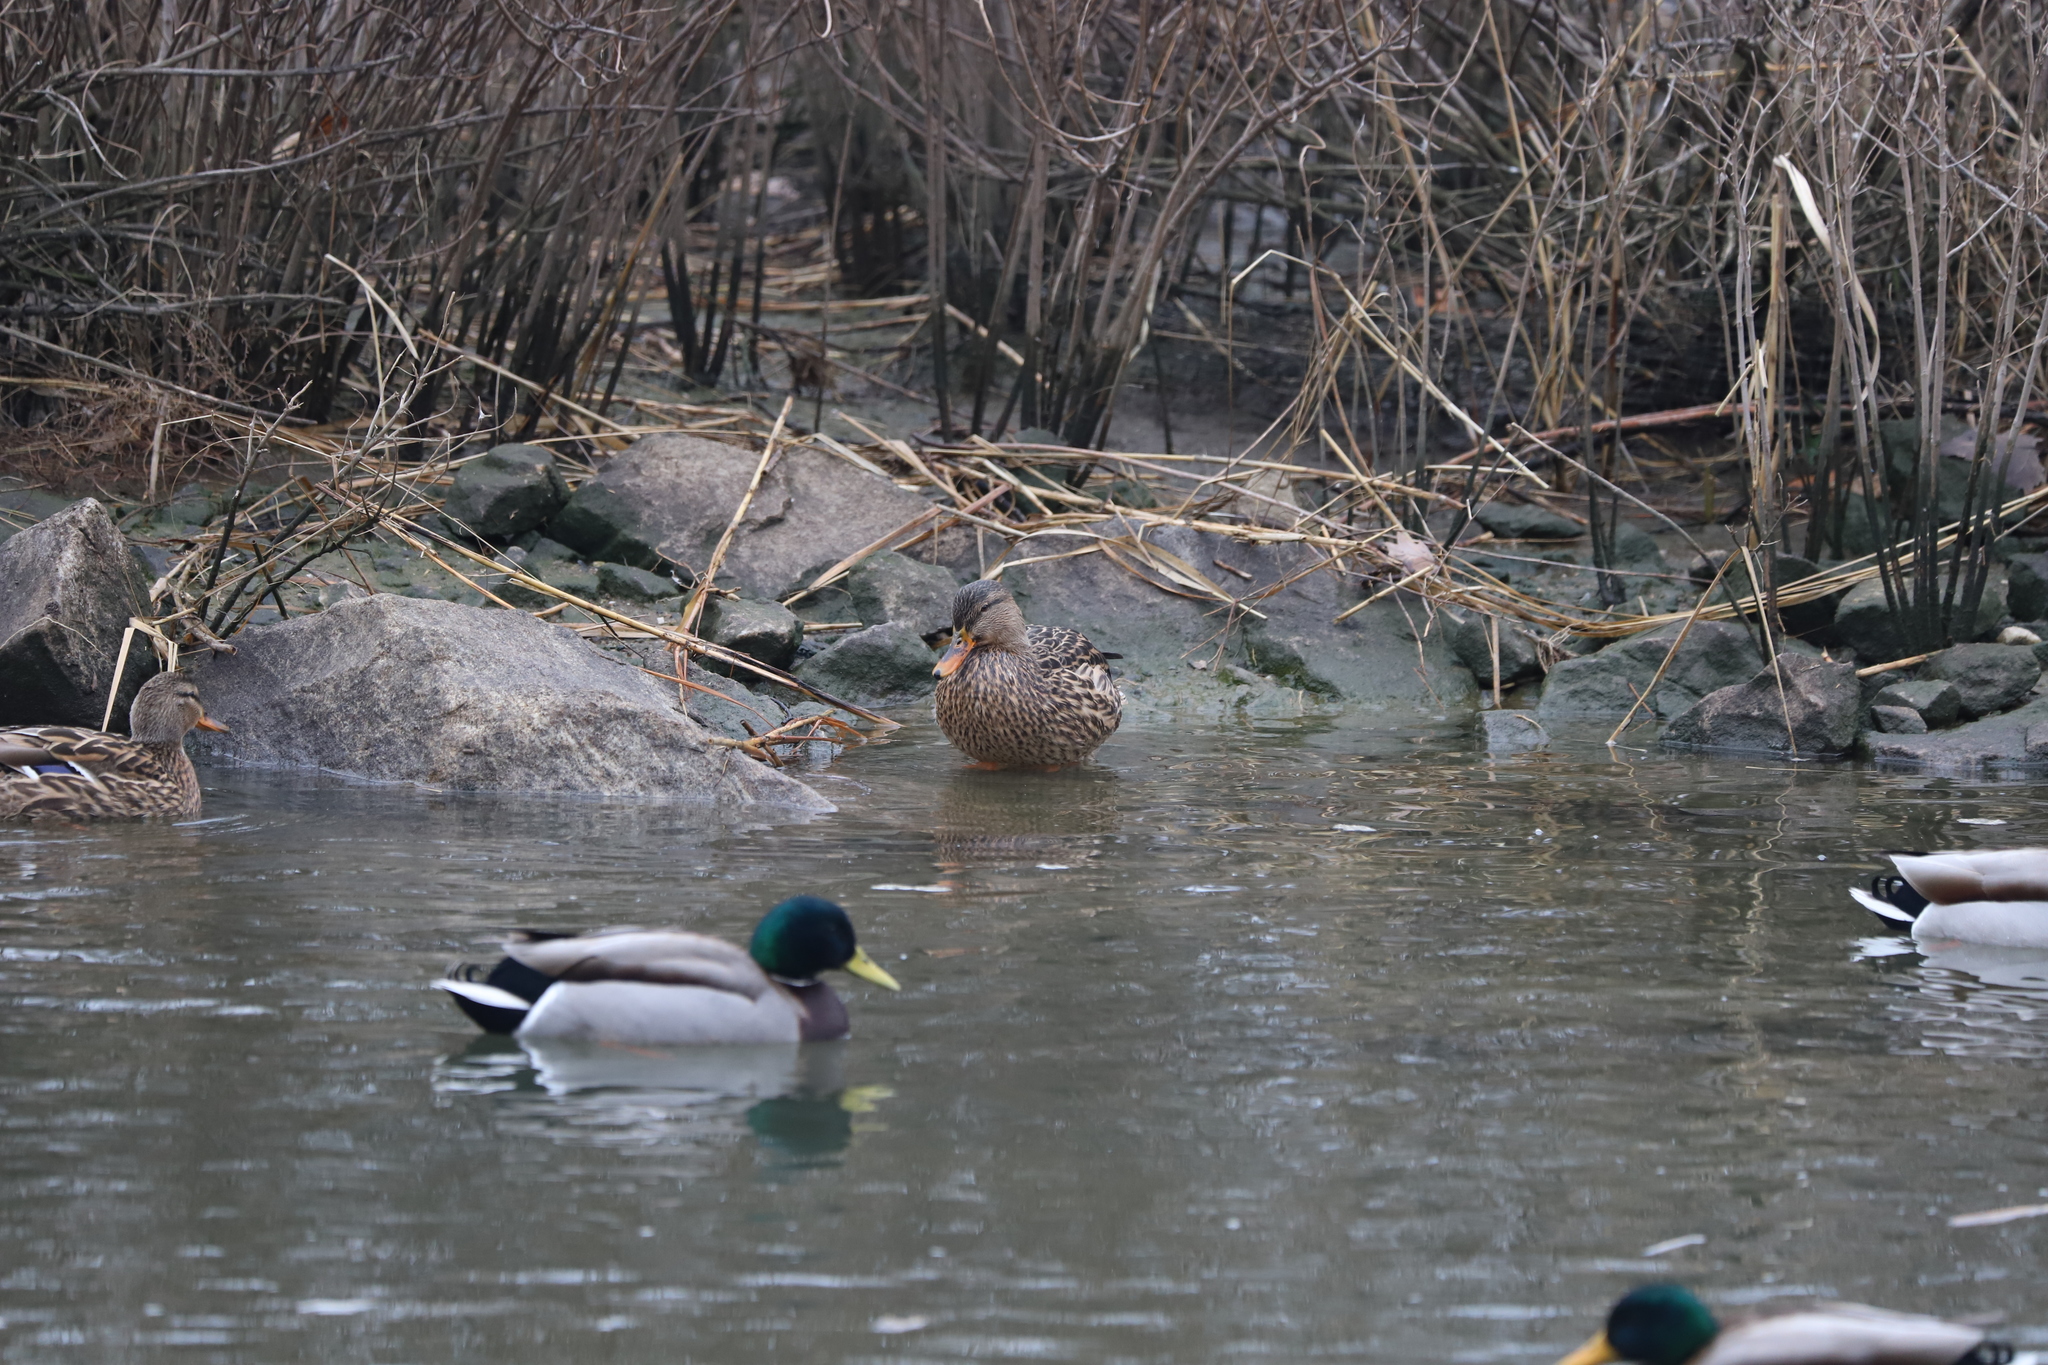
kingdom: Animalia
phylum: Chordata
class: Aves
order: Anseriformes
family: Anatidae
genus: Anas
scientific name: Anas platyrhynchos
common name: Mallard
